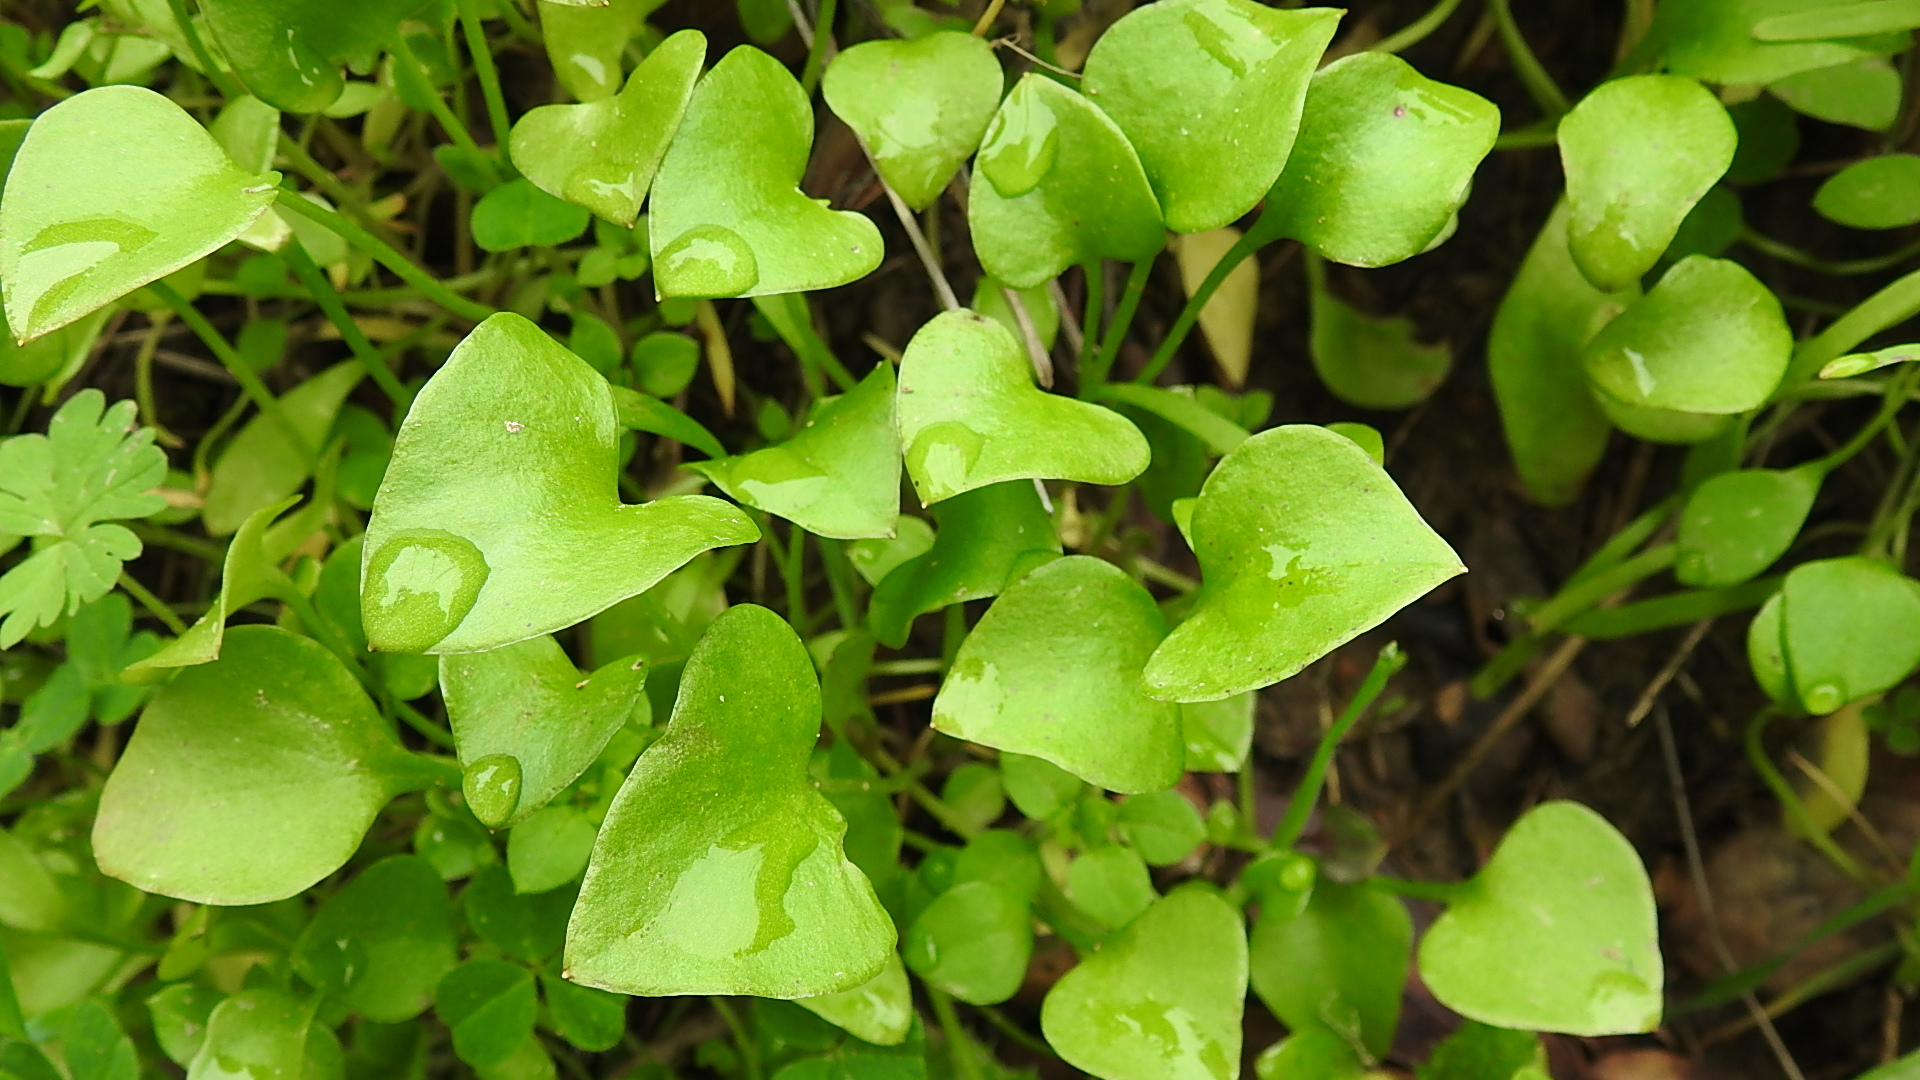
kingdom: Plantae
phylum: Tracheophyta
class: Magnoliopsida
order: Caryophyllales
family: Montiaceae
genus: Claytonia
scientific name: Claytonia perfoliata
